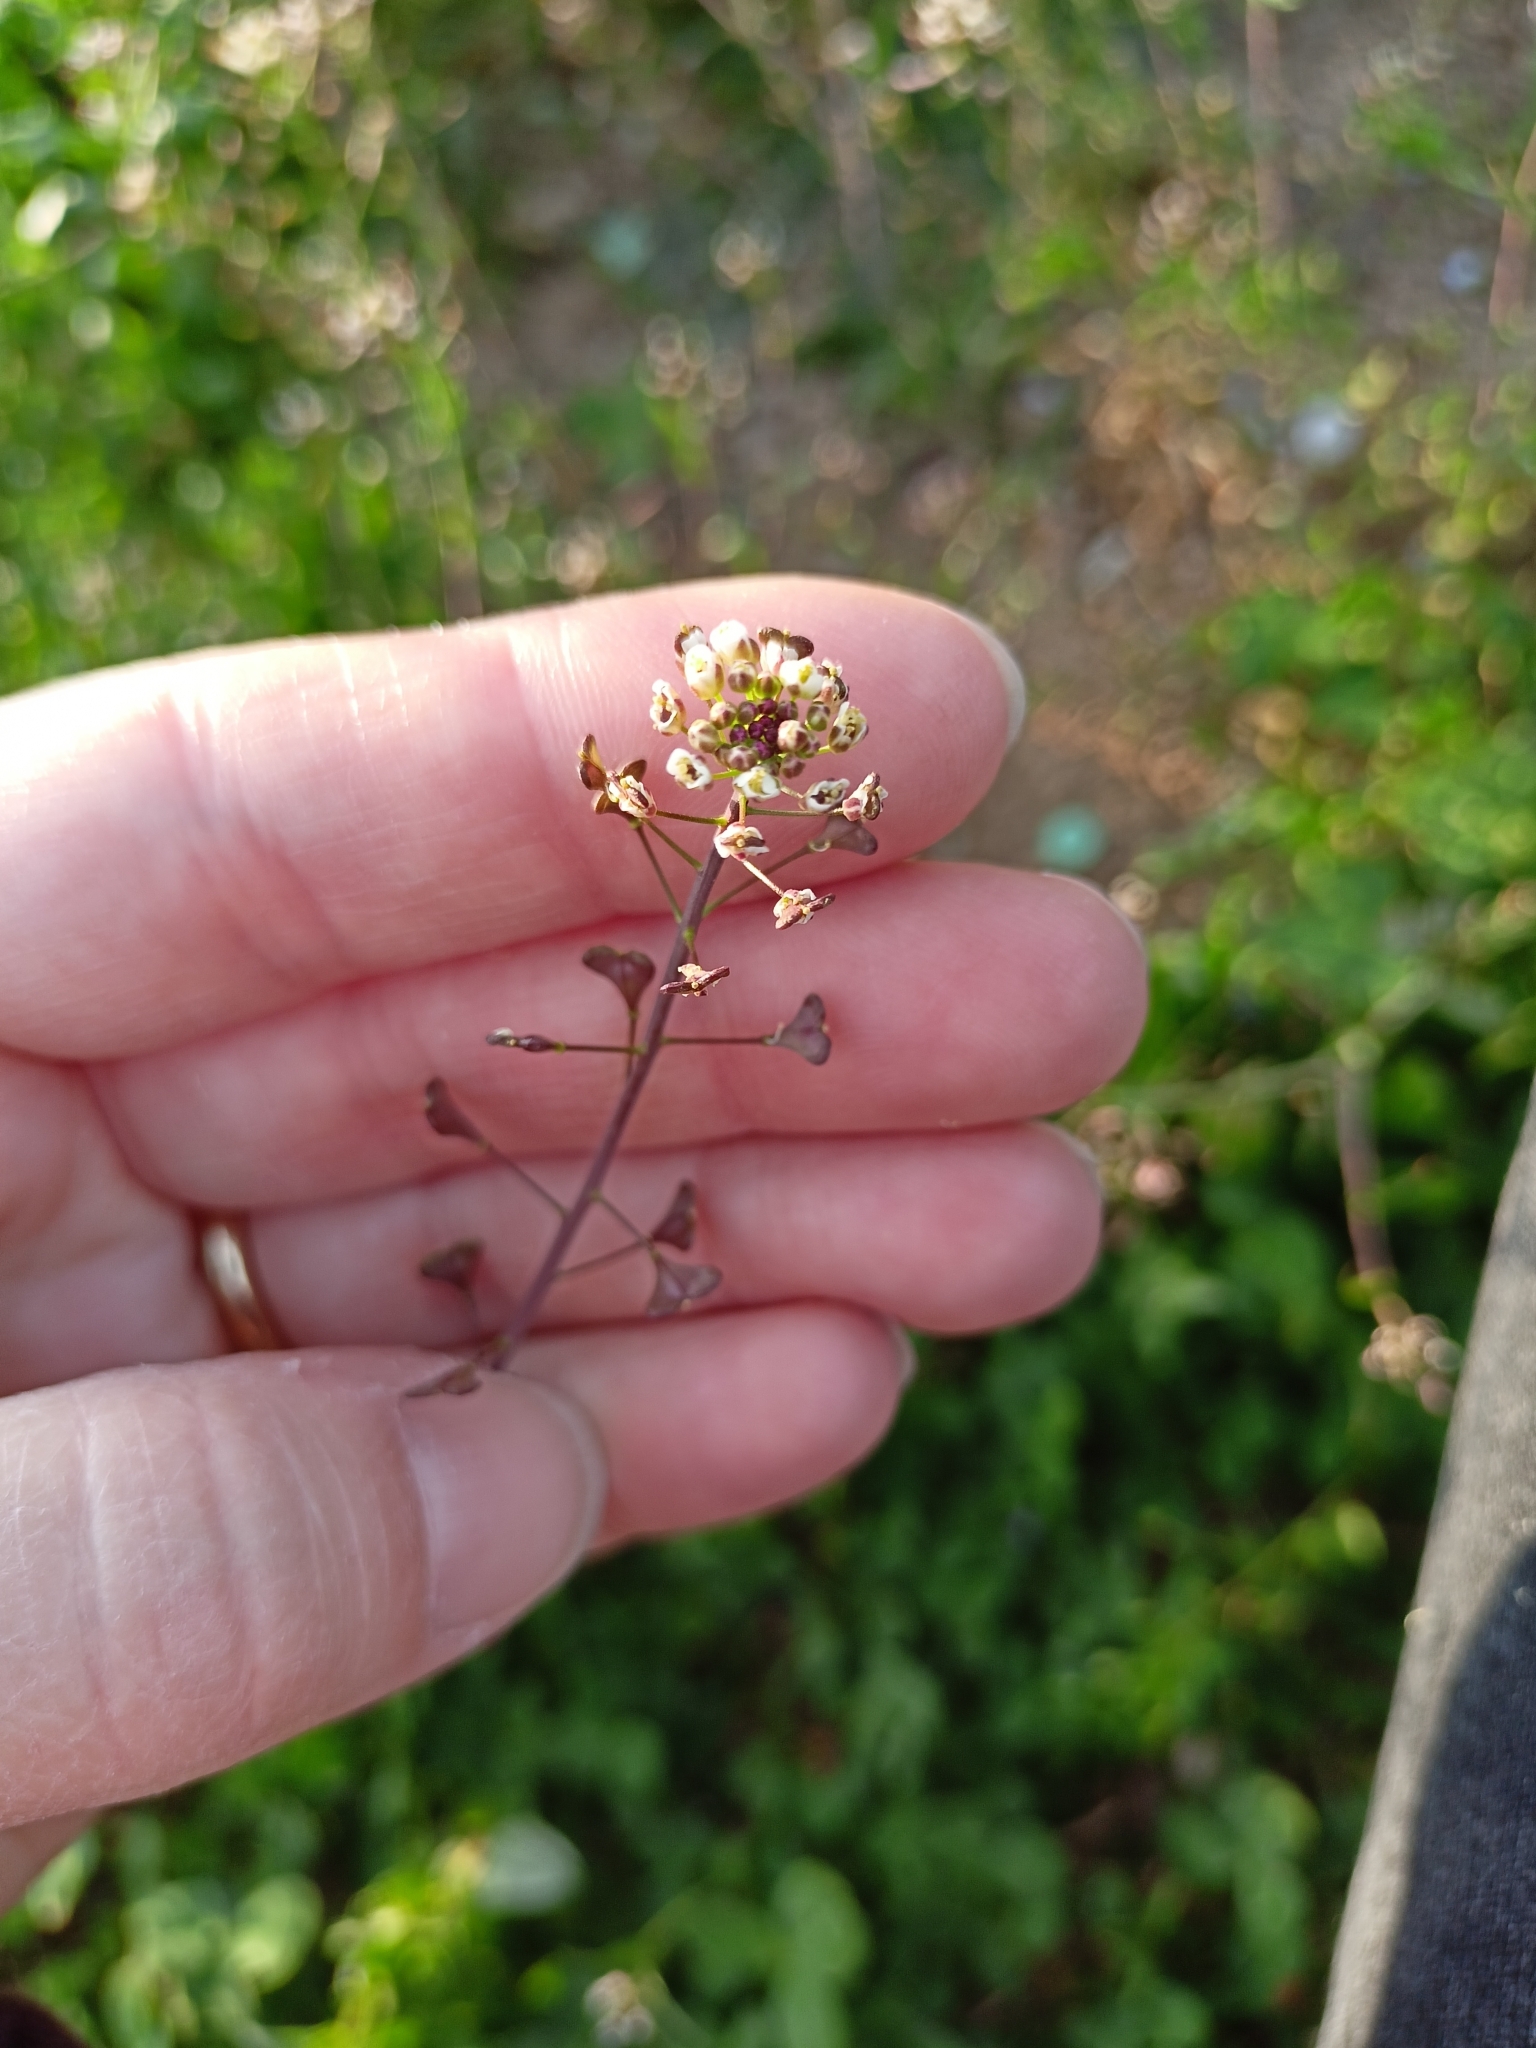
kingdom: Plantae
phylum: Tracheophyta
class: Magnoliopsida
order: Brassicales
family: Brassicaceae
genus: Capsella
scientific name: Capsella bursa-pastoris
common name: Shepherd's purse
